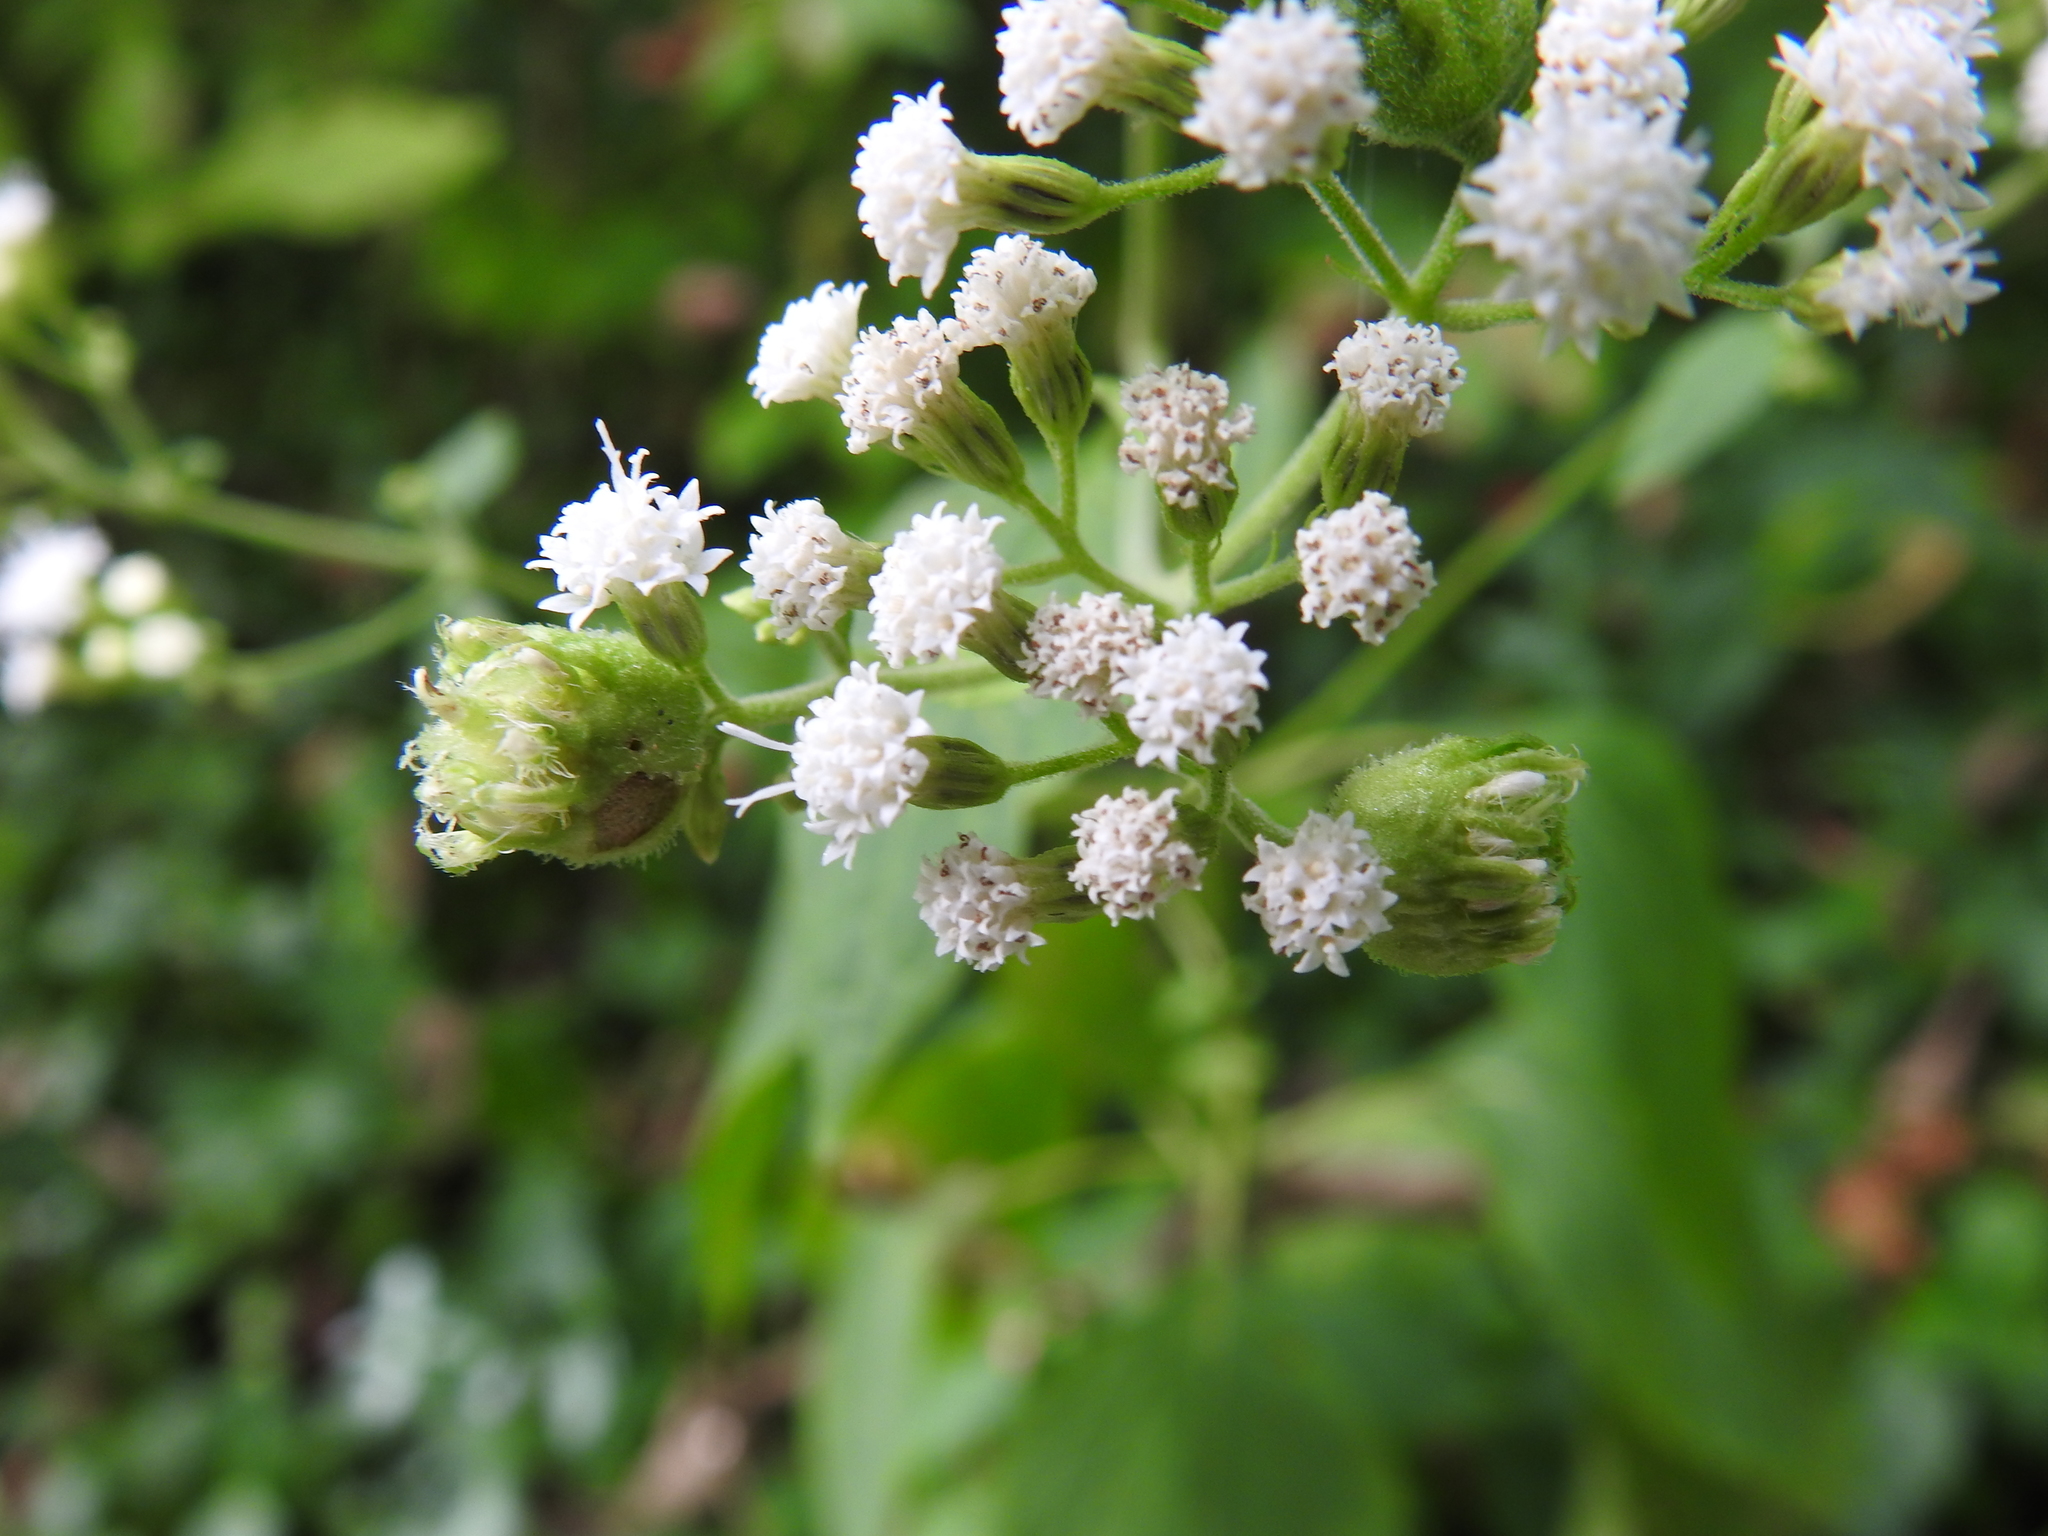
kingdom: Animalia
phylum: Arthropoda
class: Insecta
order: Diptera
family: Cecidomyiidae
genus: Schizomyia
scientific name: Schizomyia eupatoriflorae
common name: Boneset flower gall midge
